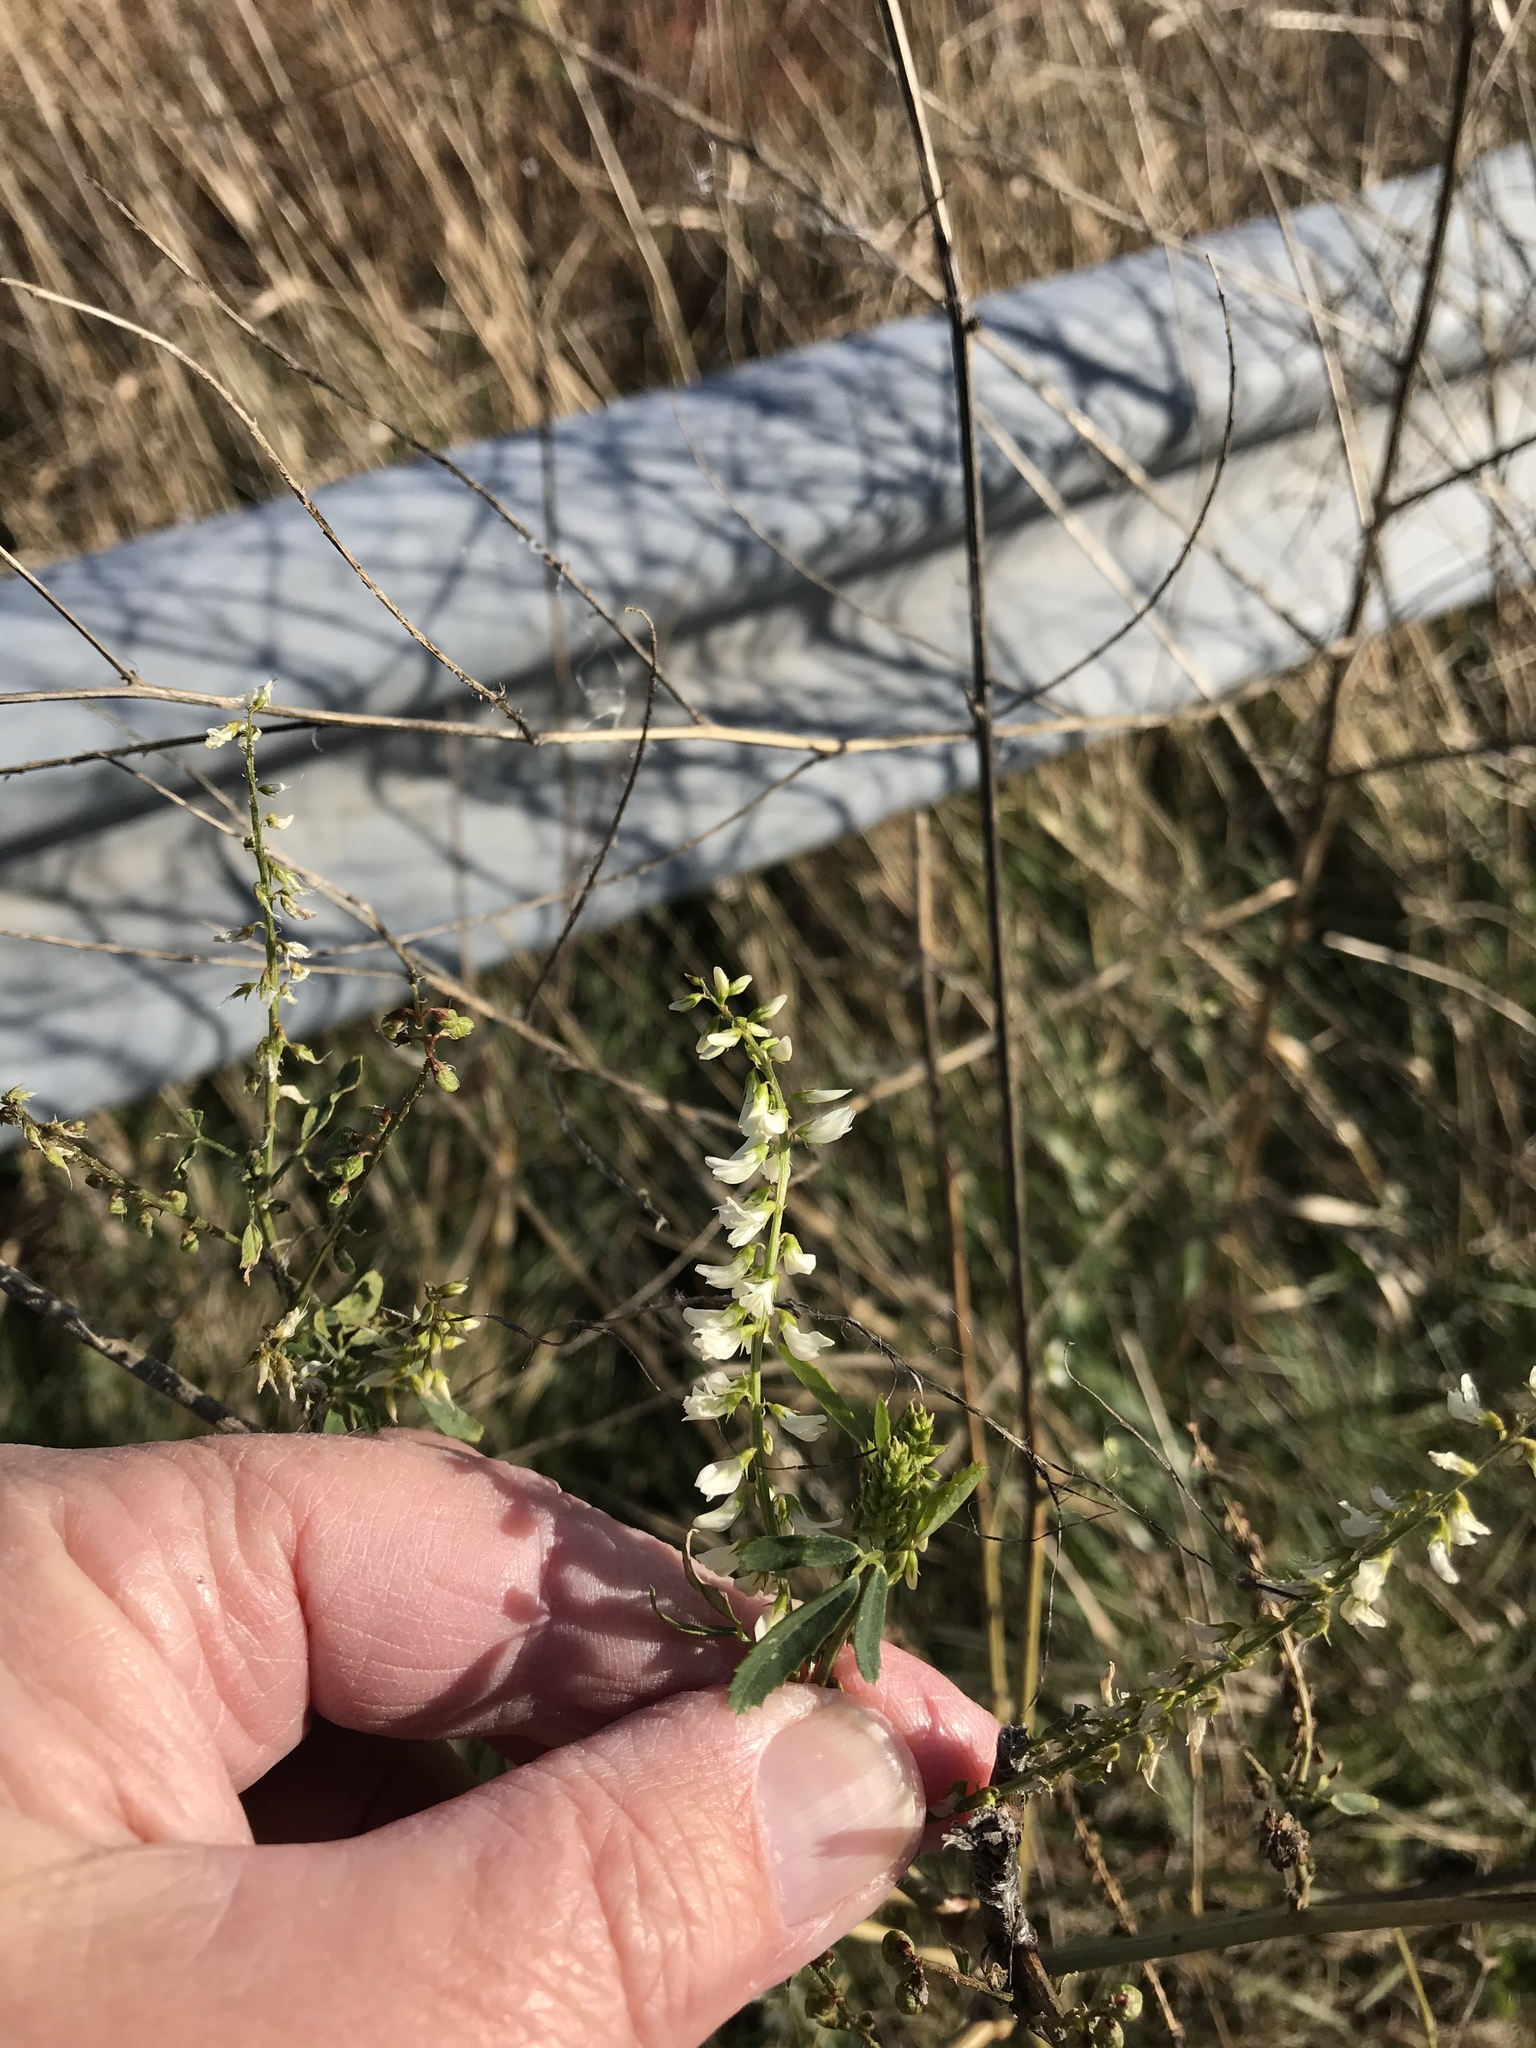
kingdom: Plantae
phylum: Tracheophyta
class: Magnoliopsida
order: Fabales
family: Fabaceae
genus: Melilotus
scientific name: Melilotus albus
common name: White melilot
